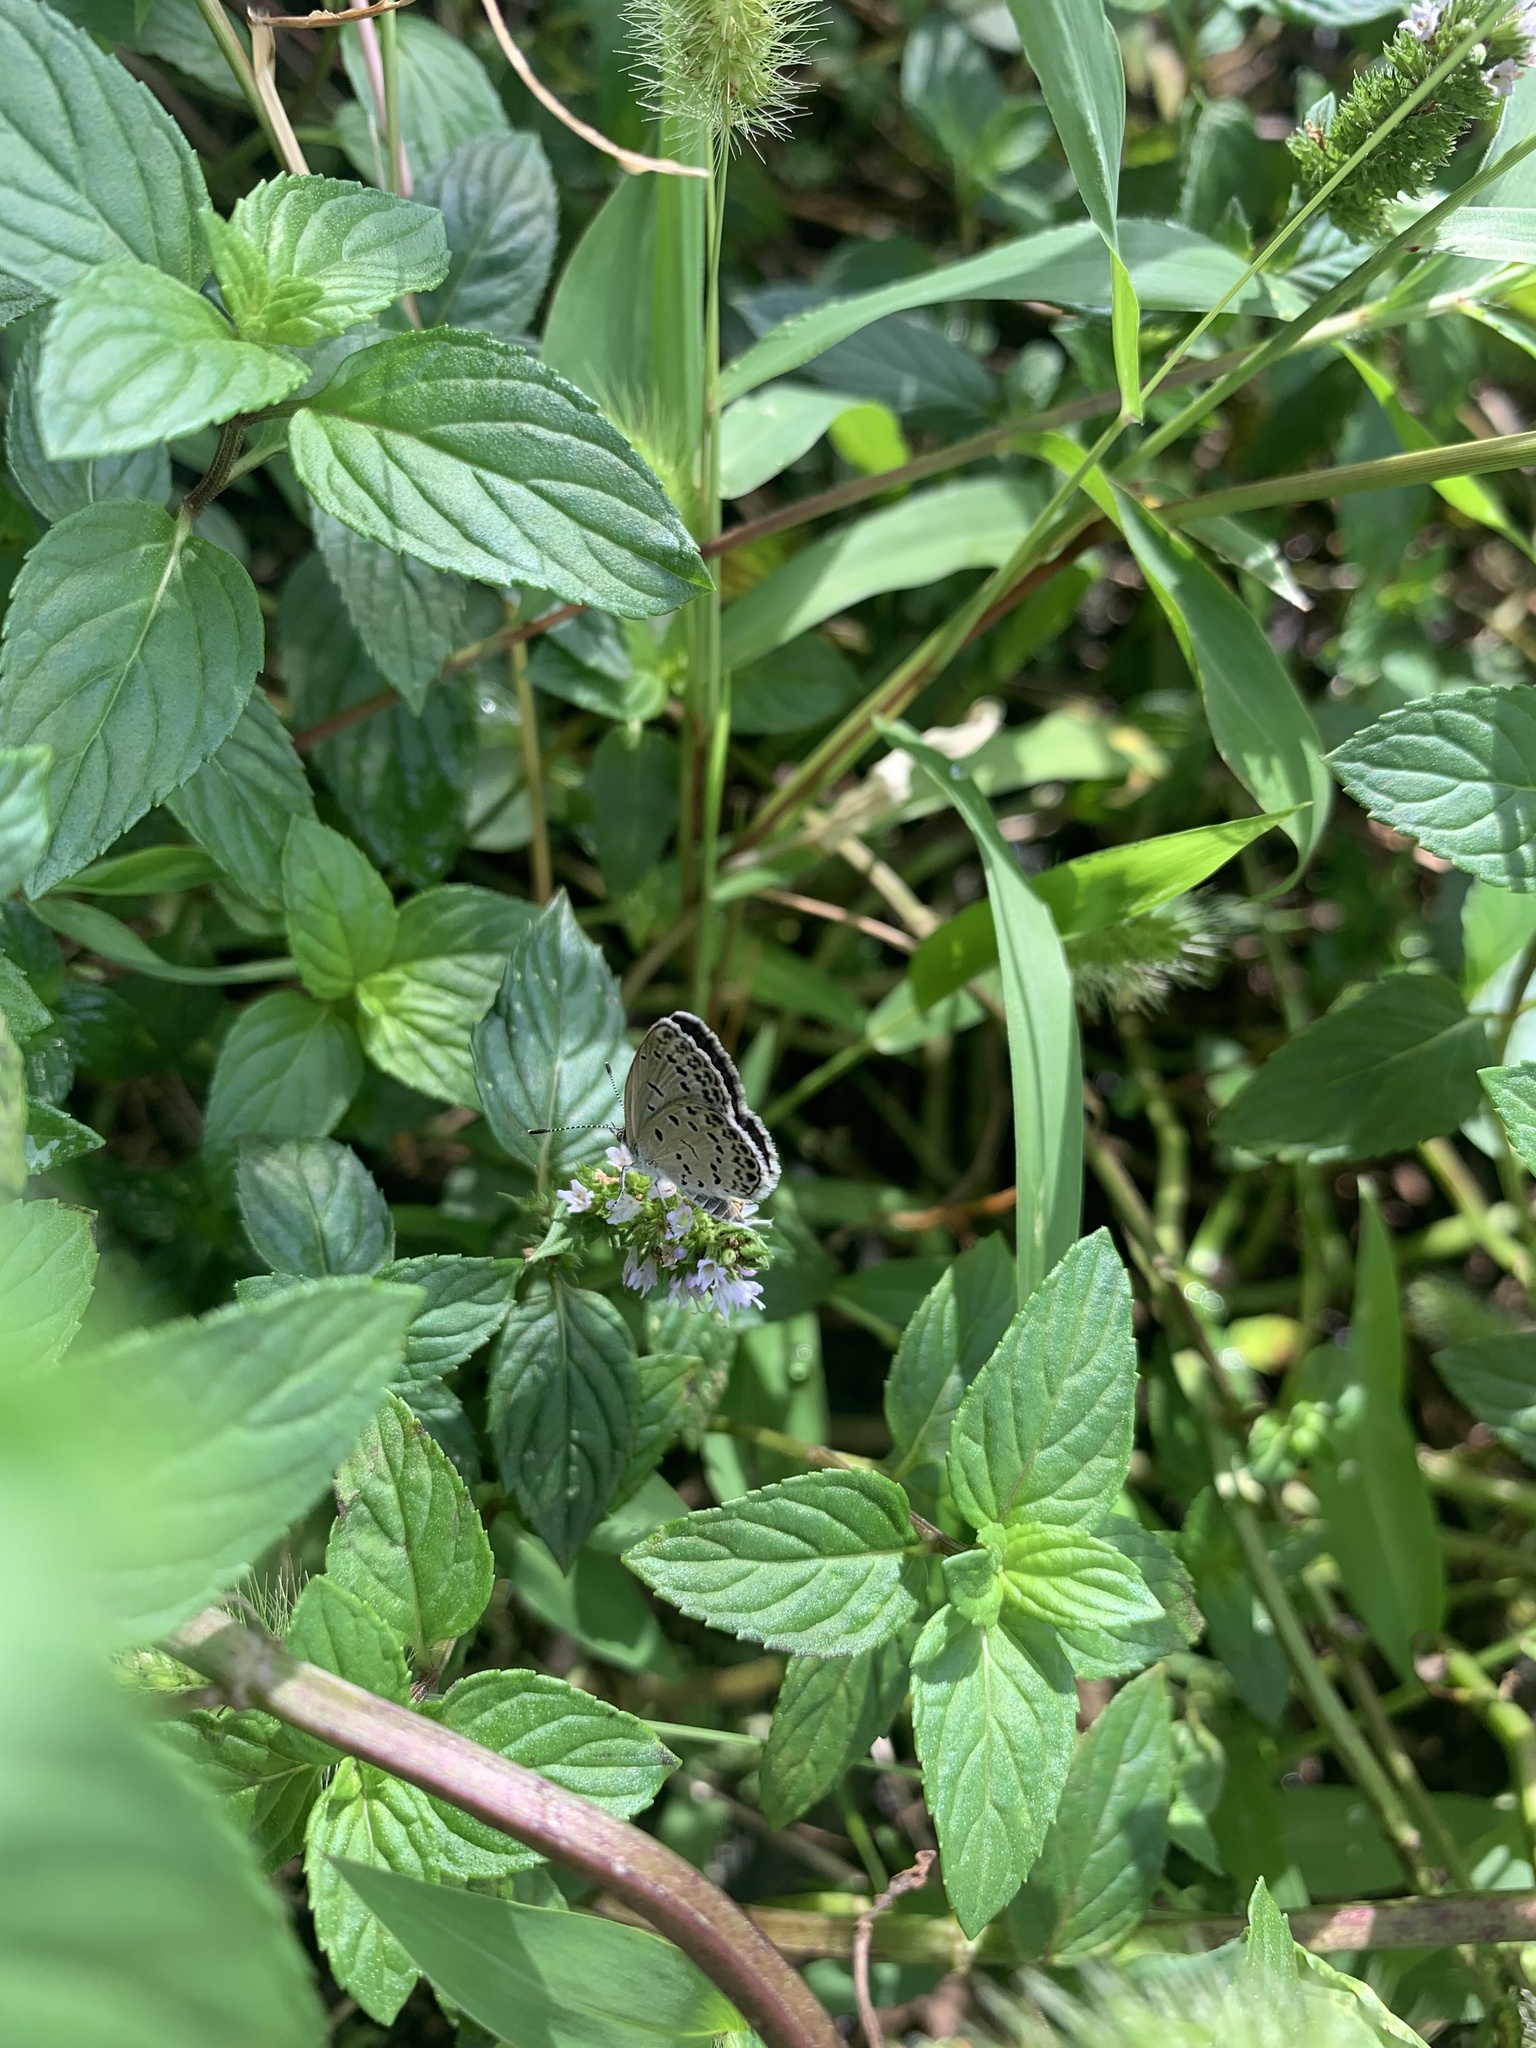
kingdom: Animalia
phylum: Arthropoda
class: Insecta
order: Lepidoptera
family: Lycaenidae
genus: Pseudozizeeria
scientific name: Pseudozizeeria maha
